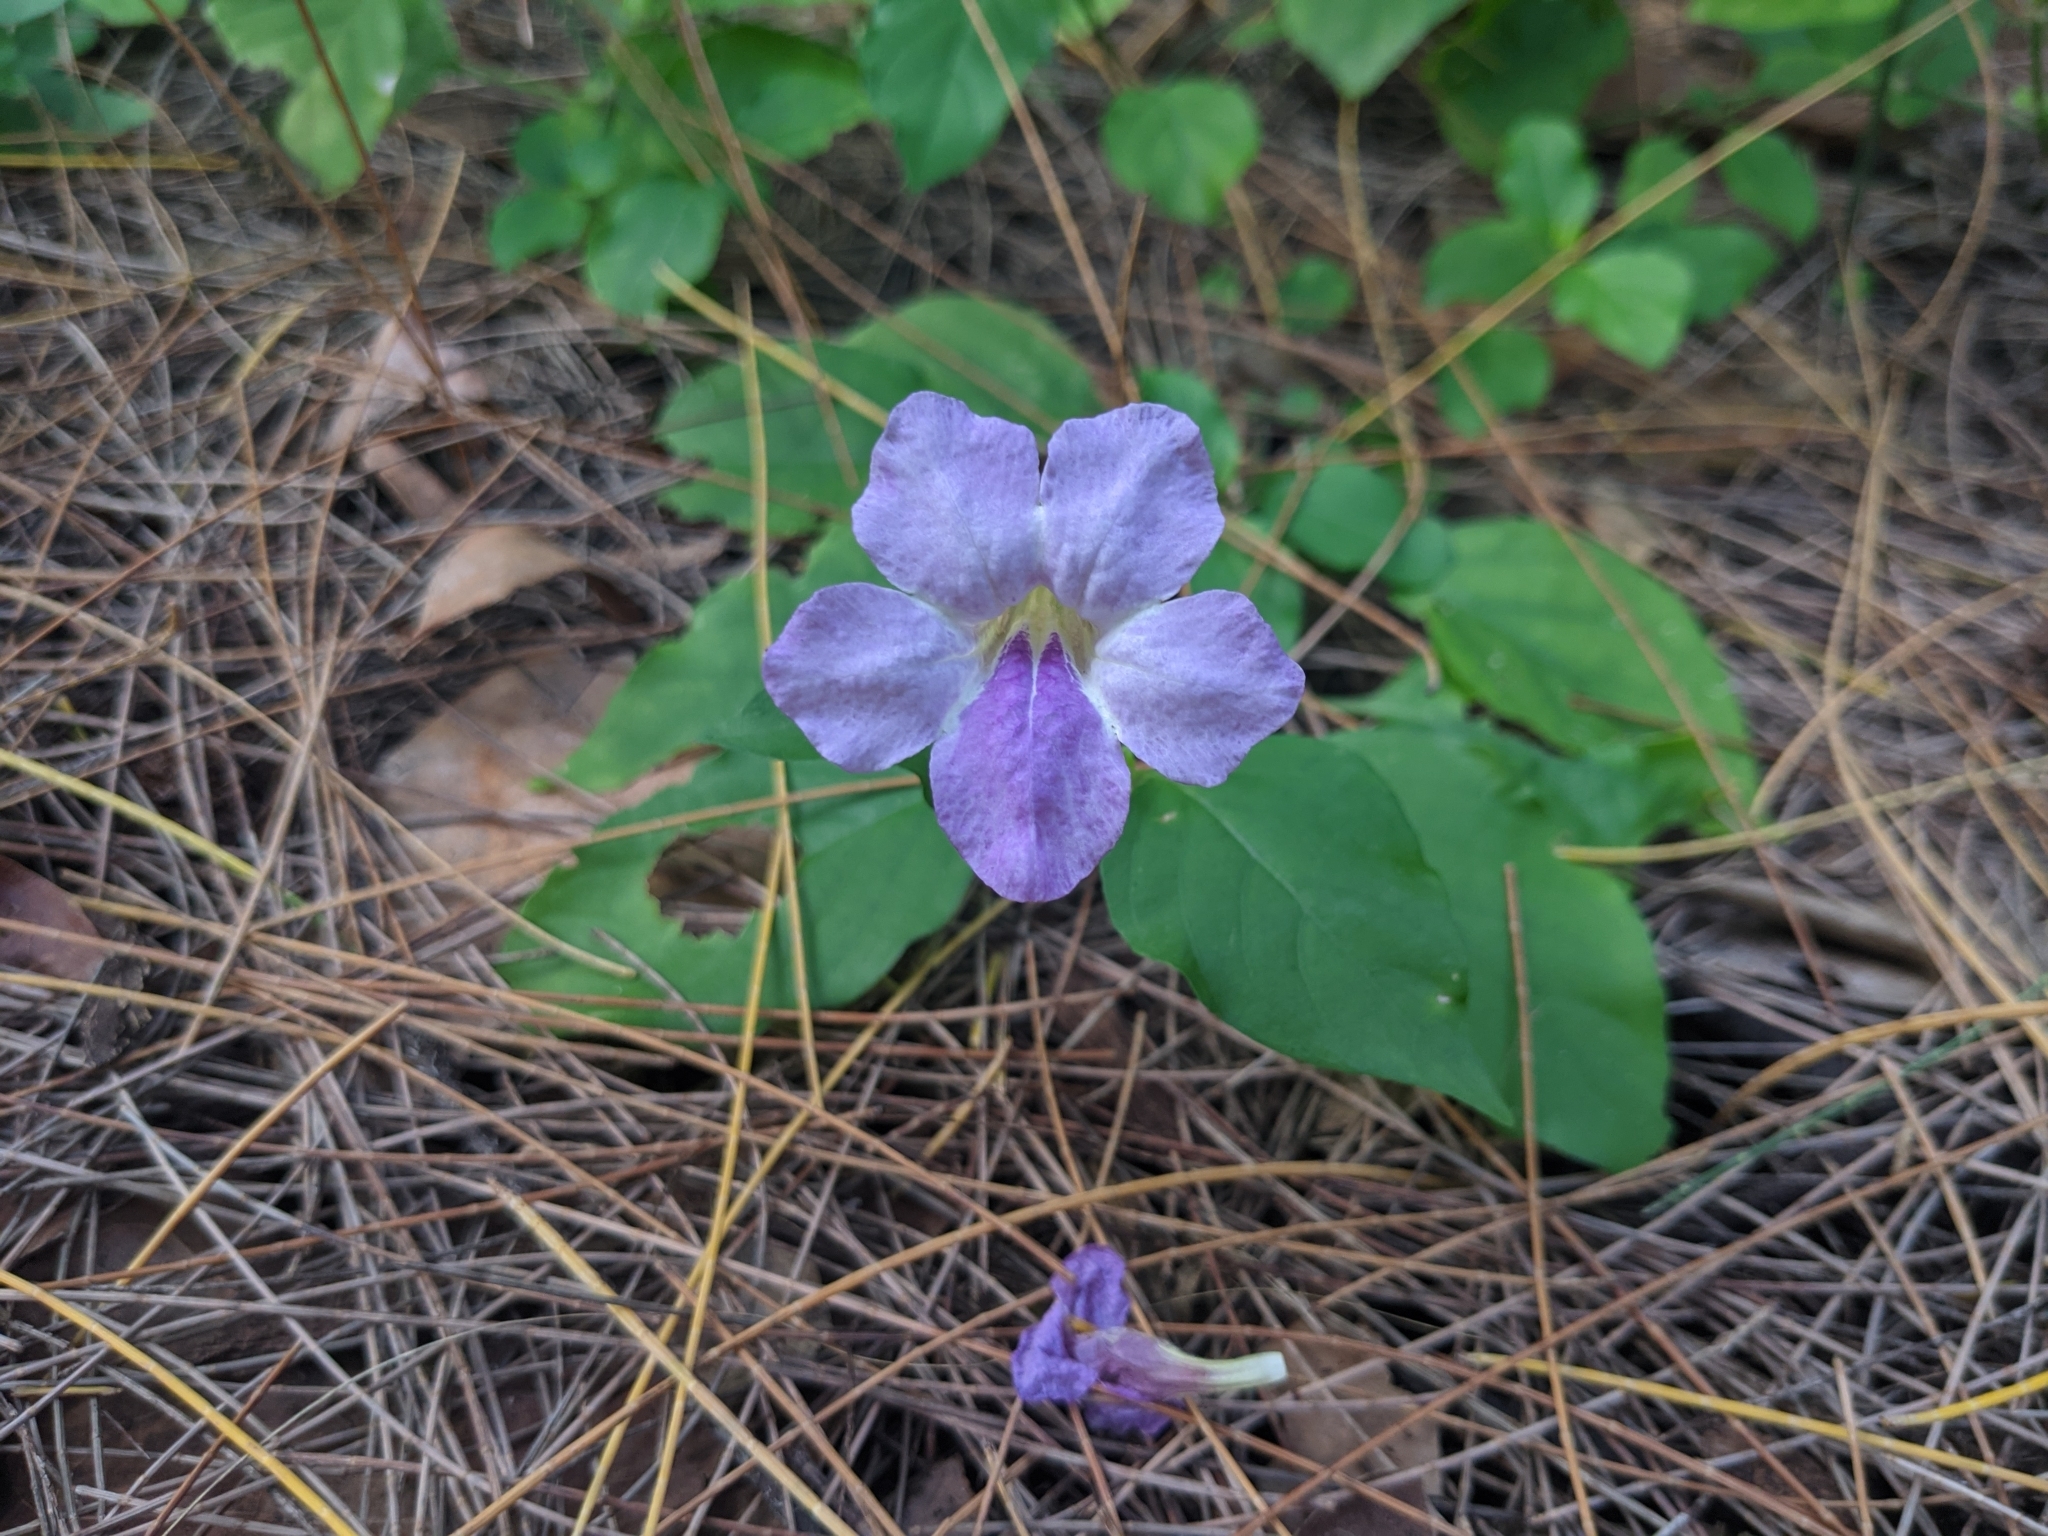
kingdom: Plantae
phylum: Tracheophyta
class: Magnoliopsida
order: Lamiales
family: Acanthaceae
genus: Asystasia
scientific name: Asystasia gangetica
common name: Chinese violet
